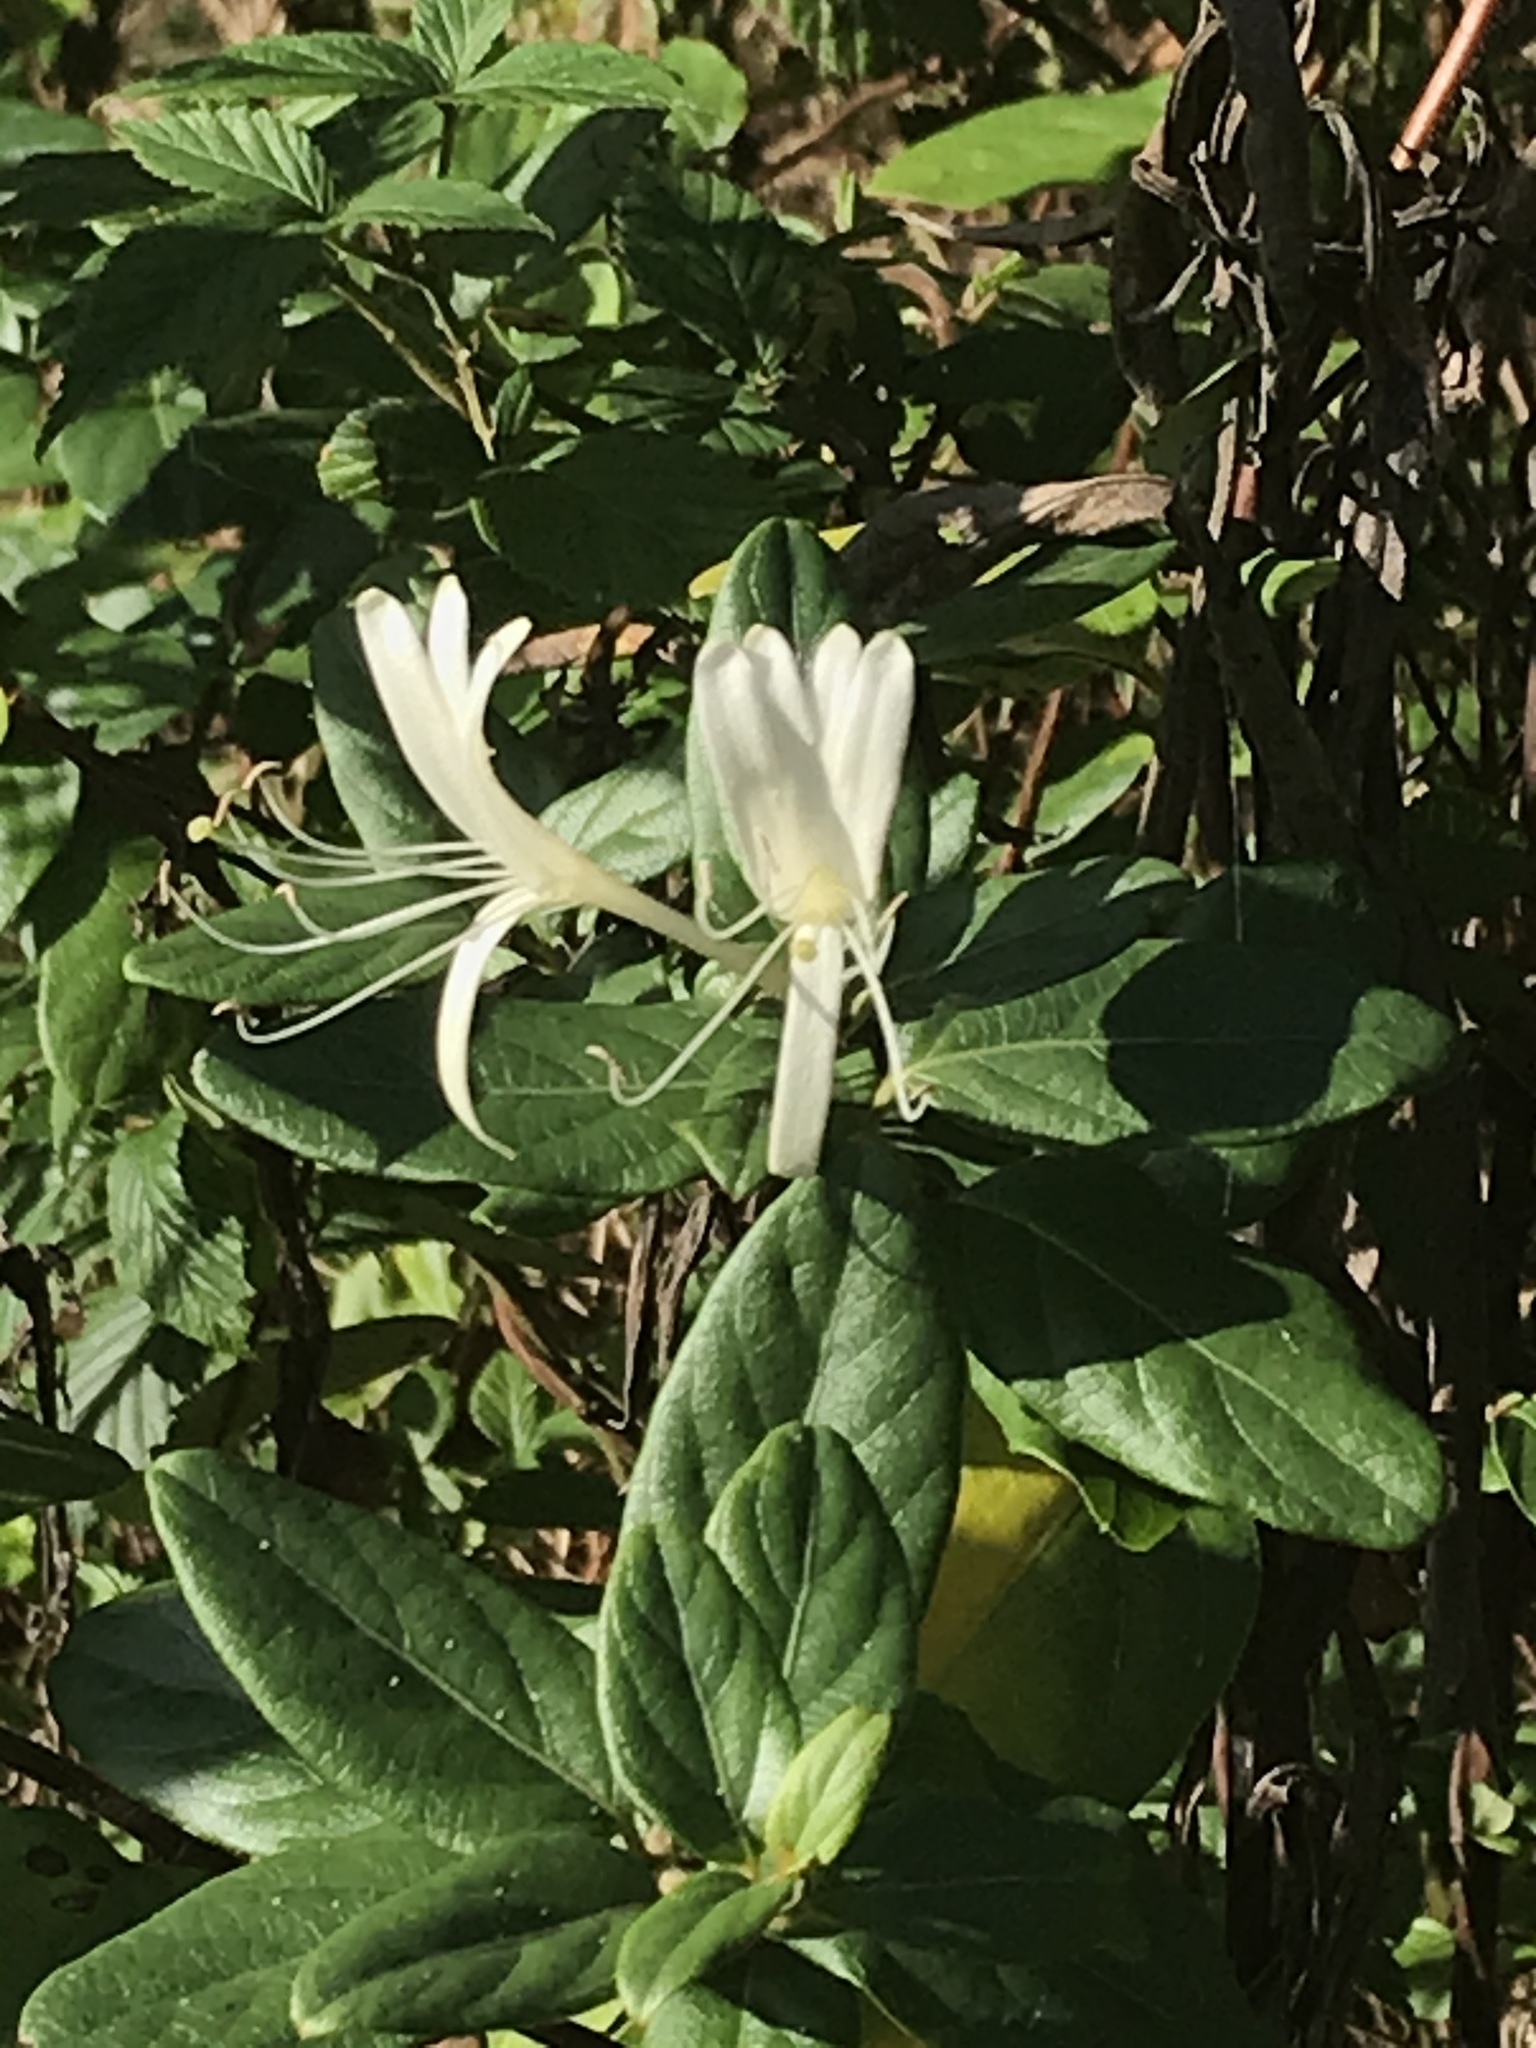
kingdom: Plantae
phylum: Tracheophyta
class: Magnoliopsida
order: Dipsacales
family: Caprifoliaceae
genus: Lonicera
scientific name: Lonicera japonica
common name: Japanese honeysuckle
